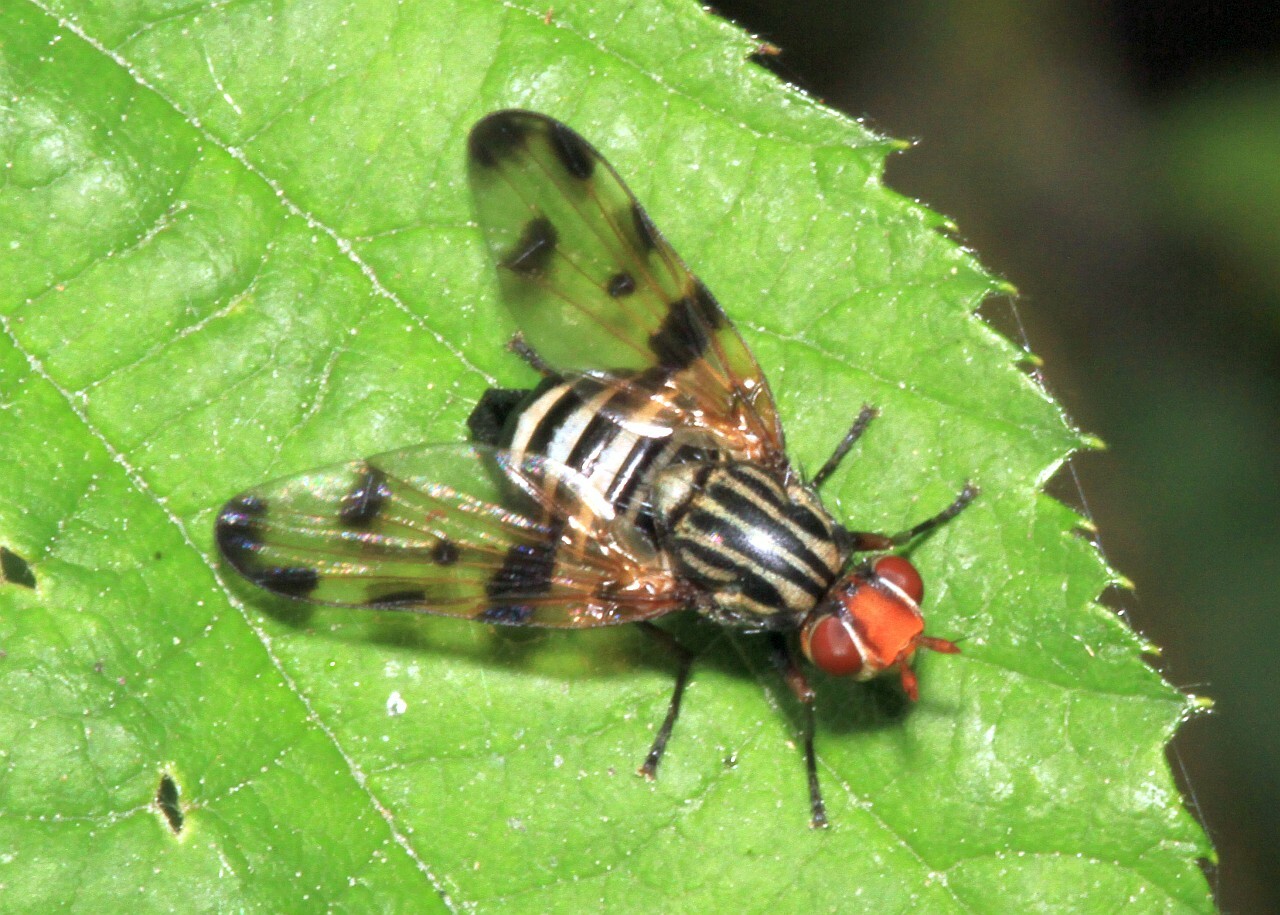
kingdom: Animalia
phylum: Arthropoda
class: Insecta
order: Diptera
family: Ulidiidae
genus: Otites
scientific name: Otites porcus
